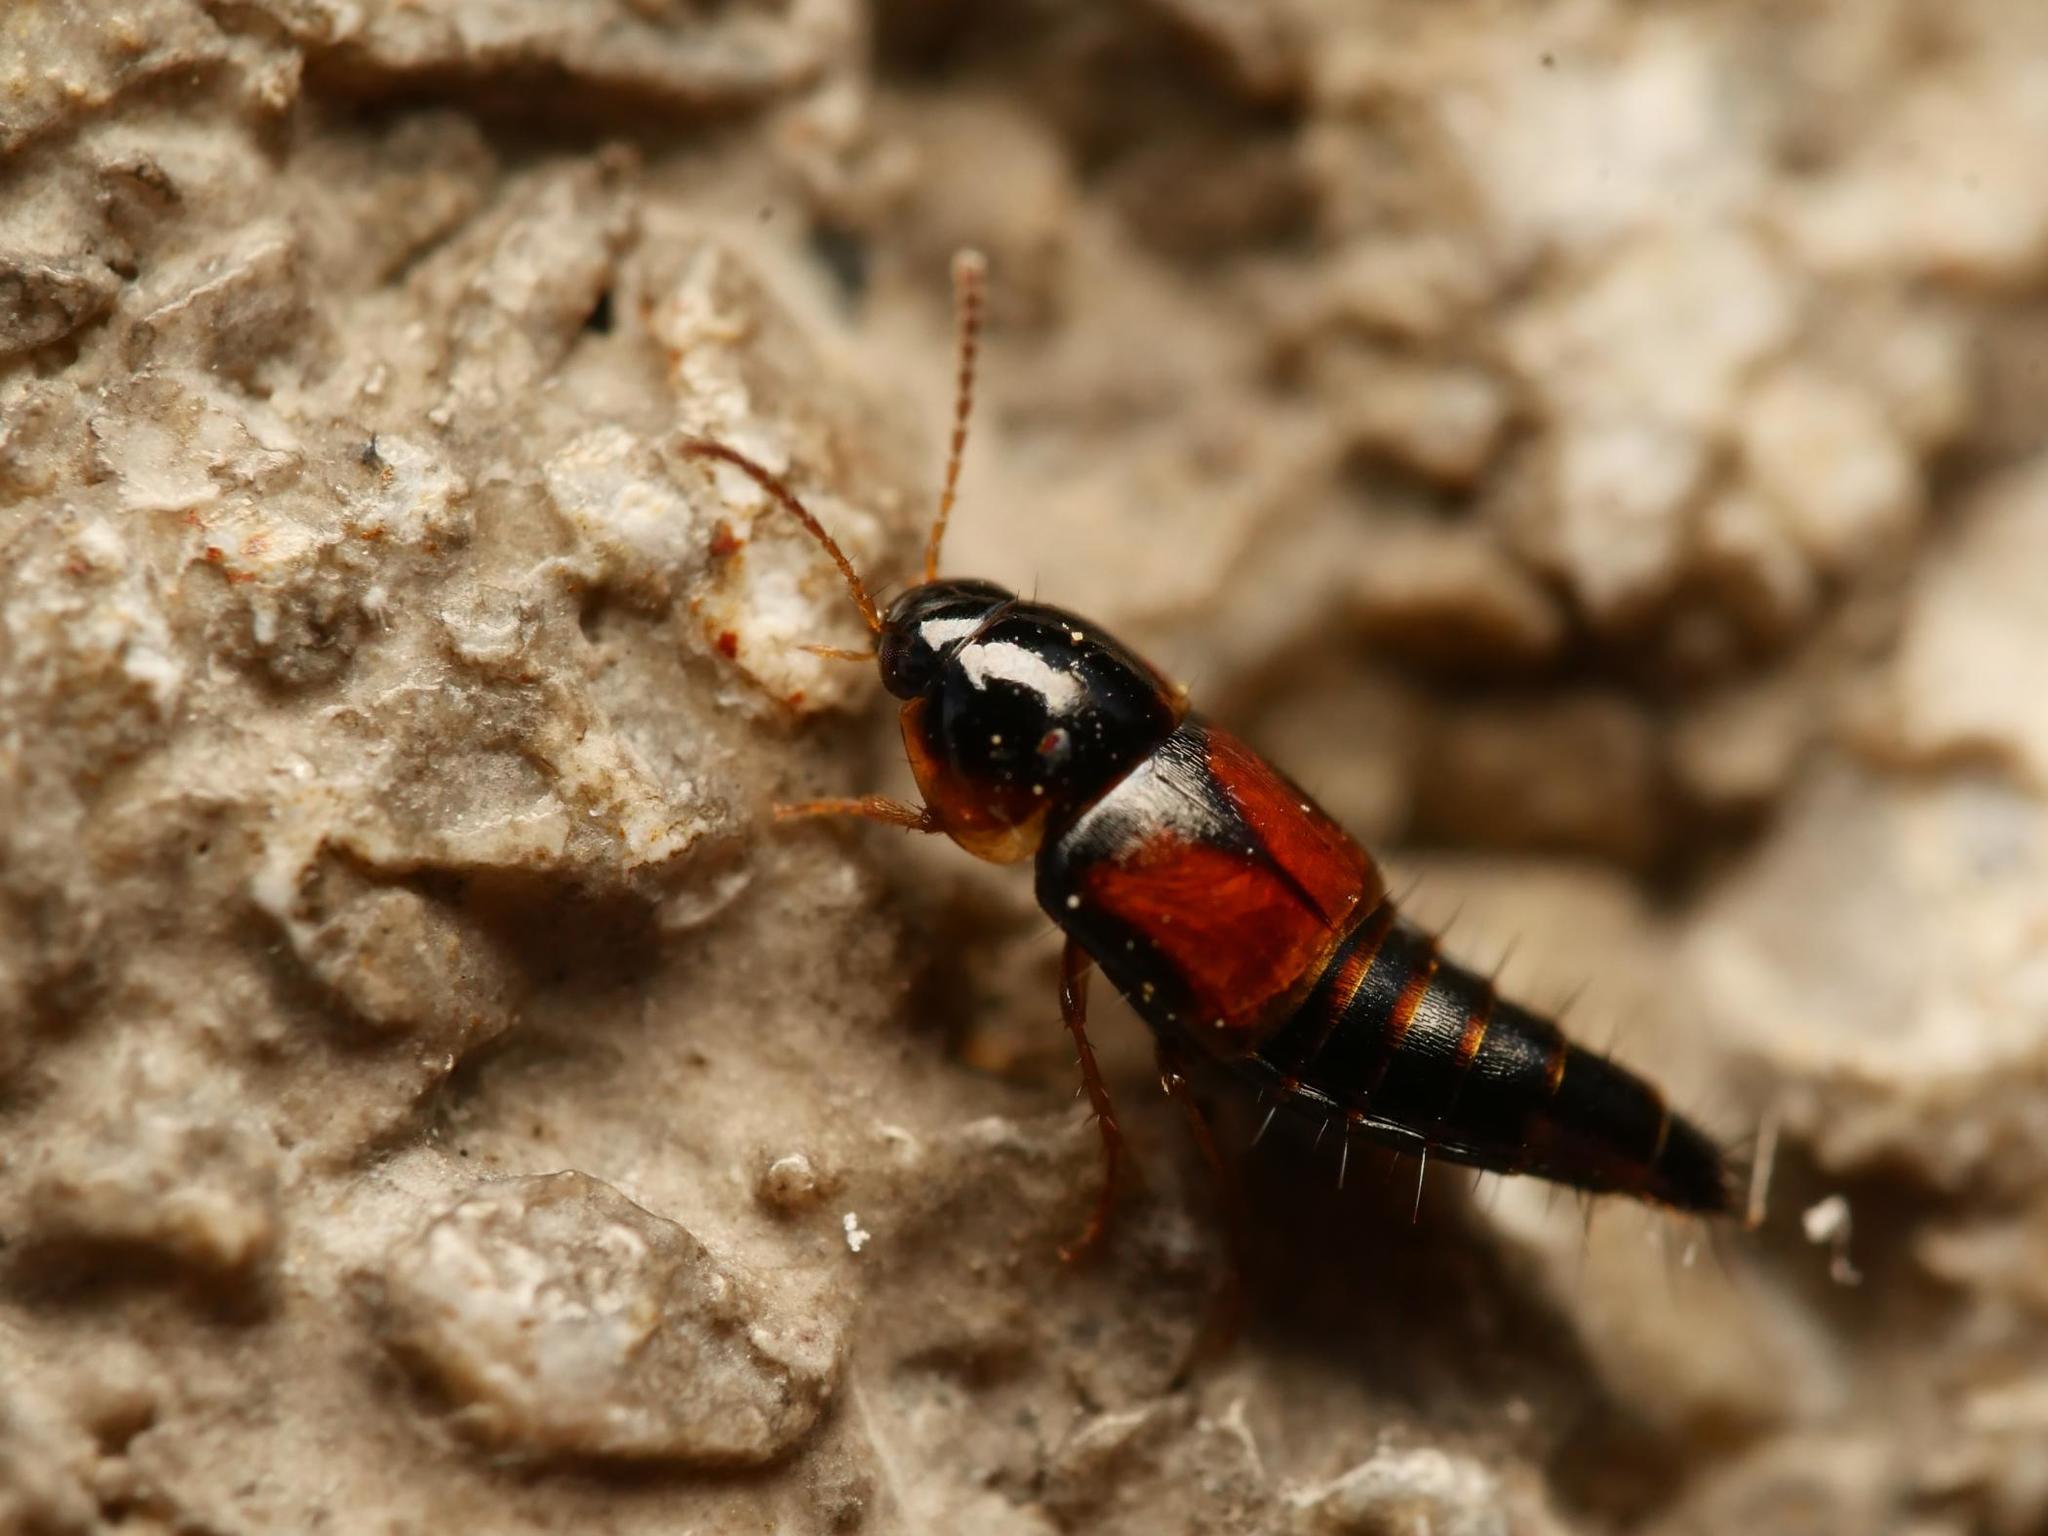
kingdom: Animalia
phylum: Arthropoda
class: Insecta
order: Coleoptera
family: Staphylinidae
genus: Tachyporus
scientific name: Tachyporus hypnorum
